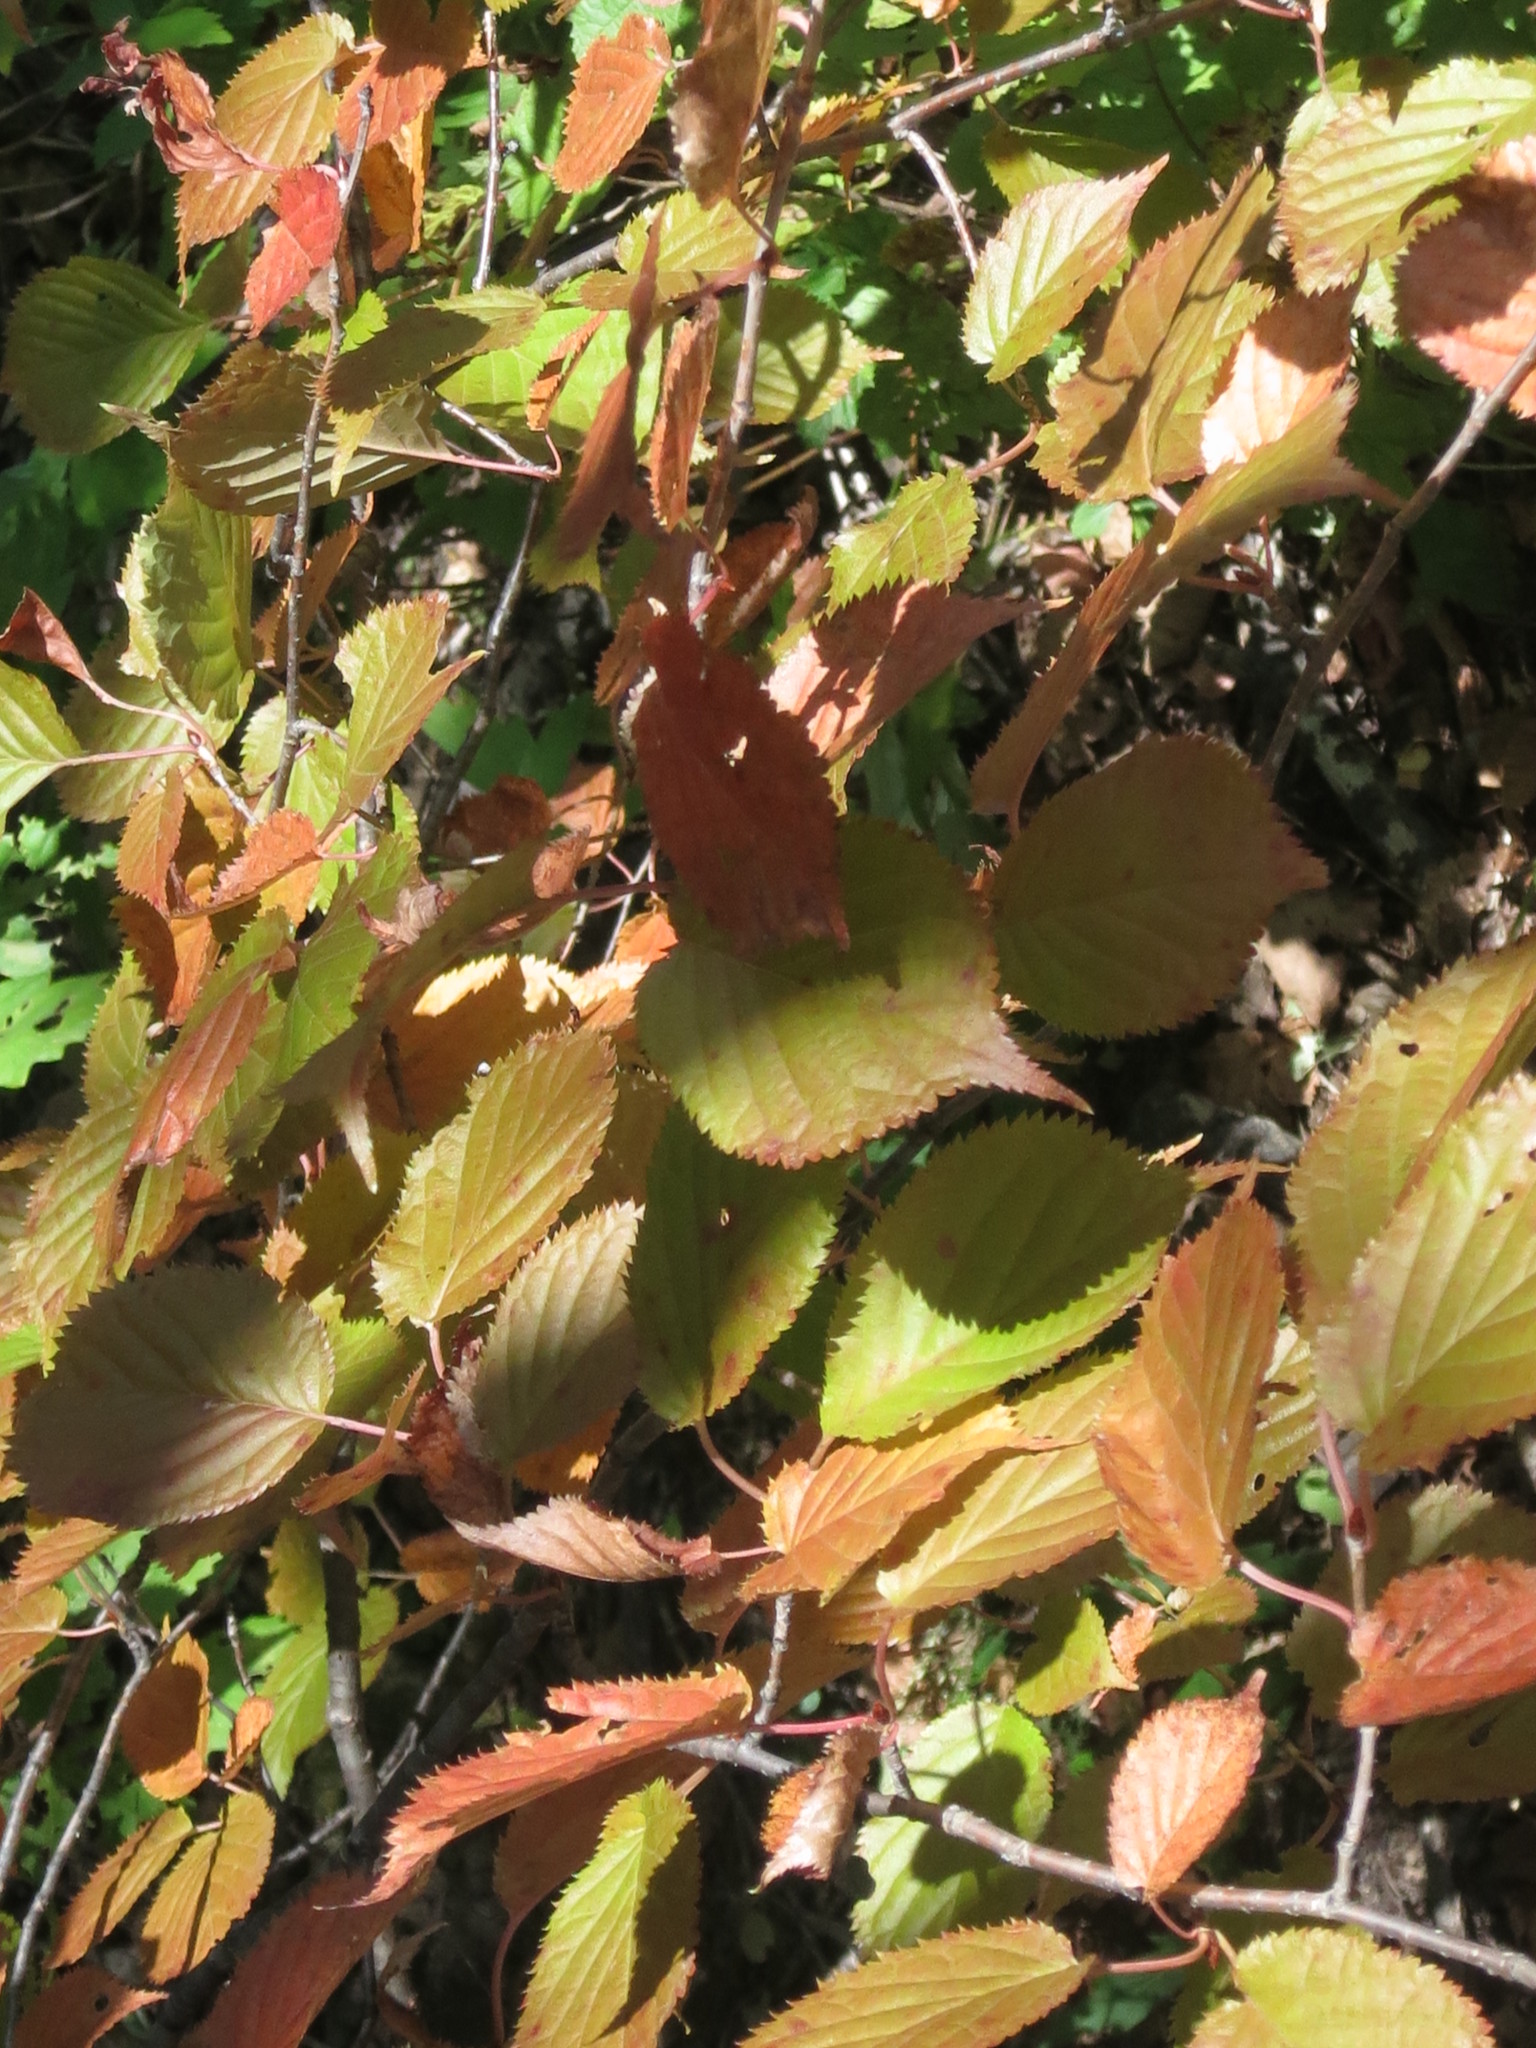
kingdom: Plantae
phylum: Tracheophyta
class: Magnoliopsida
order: Rosales
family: Rosaceae
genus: Prunus
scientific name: Prunus sargentii
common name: Sargent cherry
